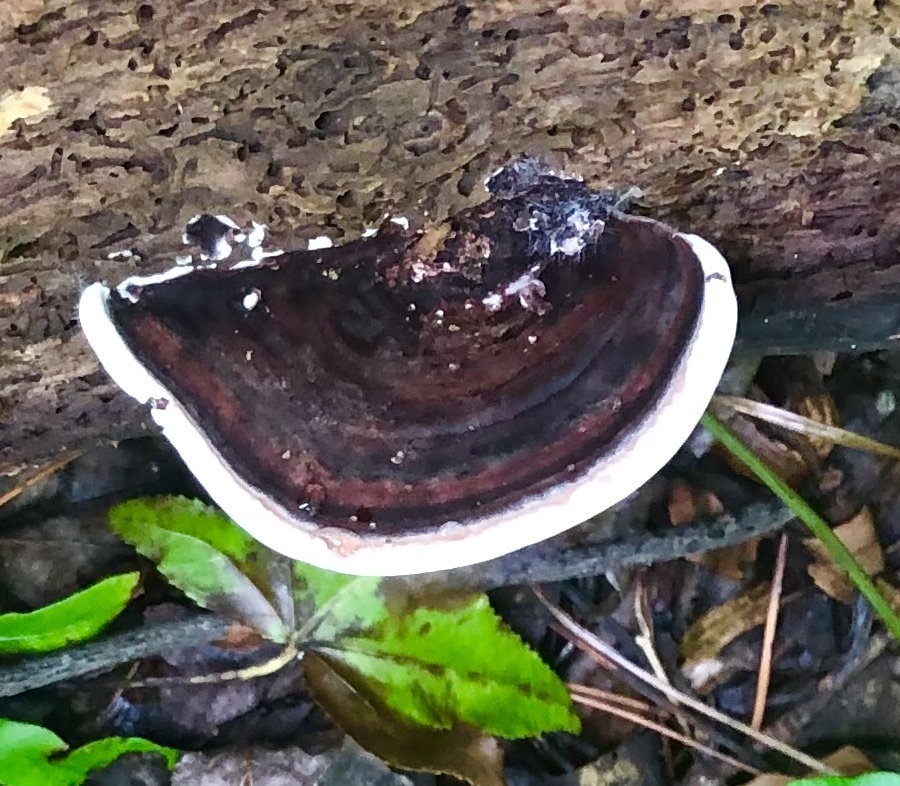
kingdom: Fungi
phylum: Basidiomycota
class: Agaricomycetes
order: Polyporales
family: Steccherinaceae
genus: Nigroporus
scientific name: Nigroporus vinosus
